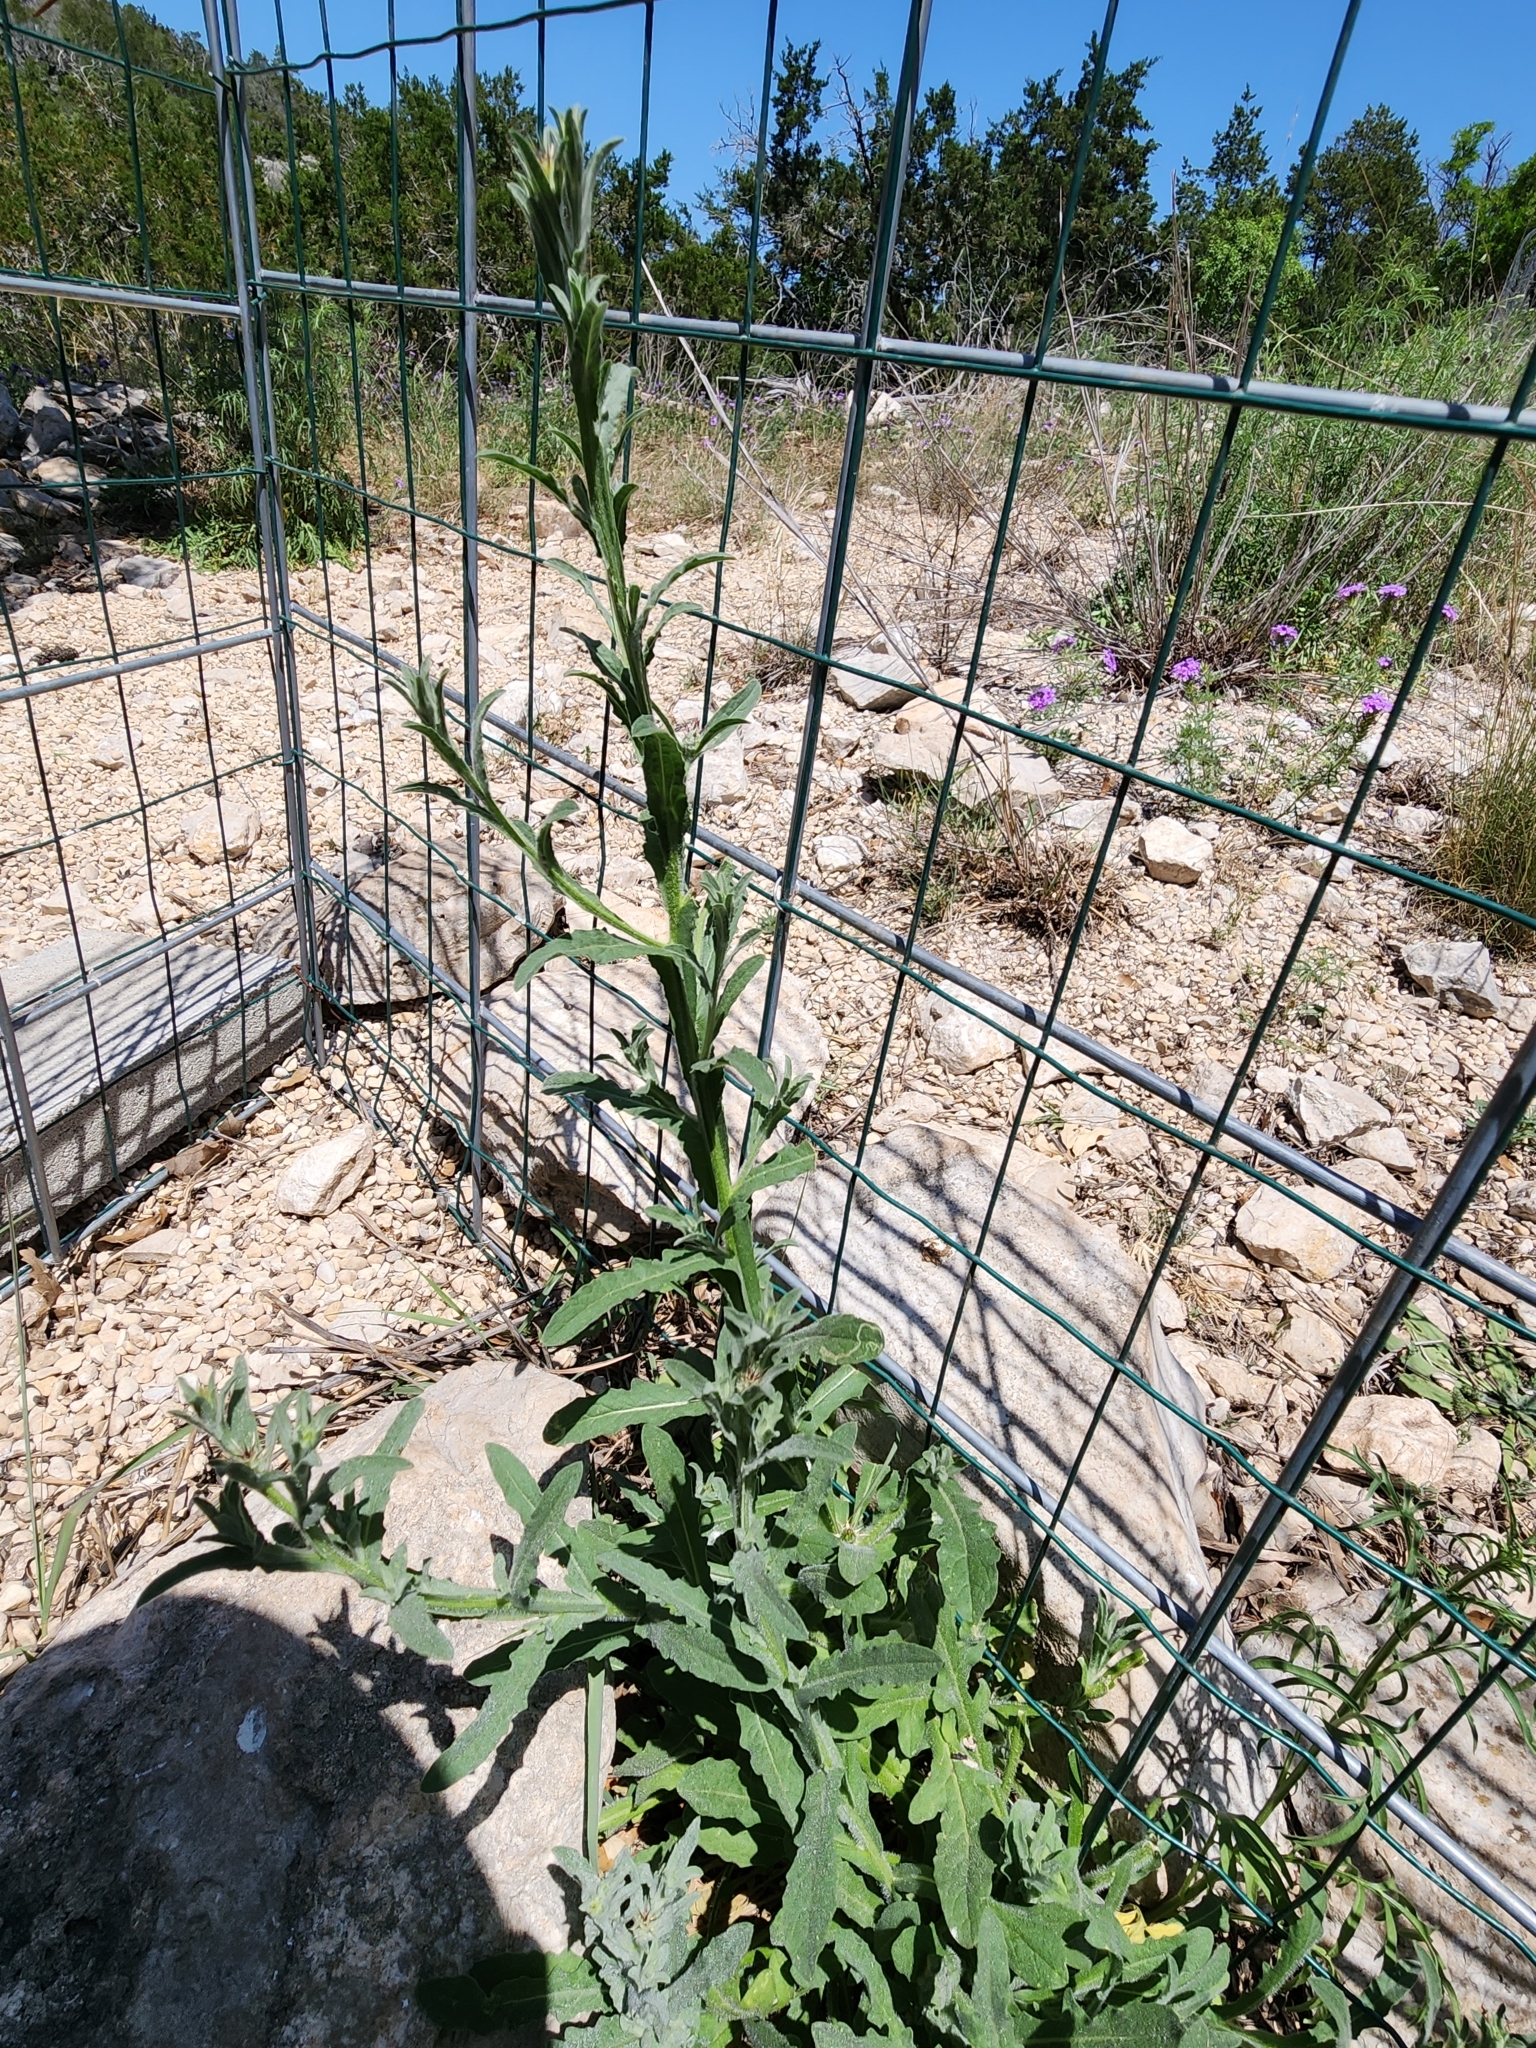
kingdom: Plantae
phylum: Tracheophyta
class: Magnoliopsida
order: Asterales
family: Asteraceae
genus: Centaurea
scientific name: Centaurea melitensis
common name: Maltese star-thistle
